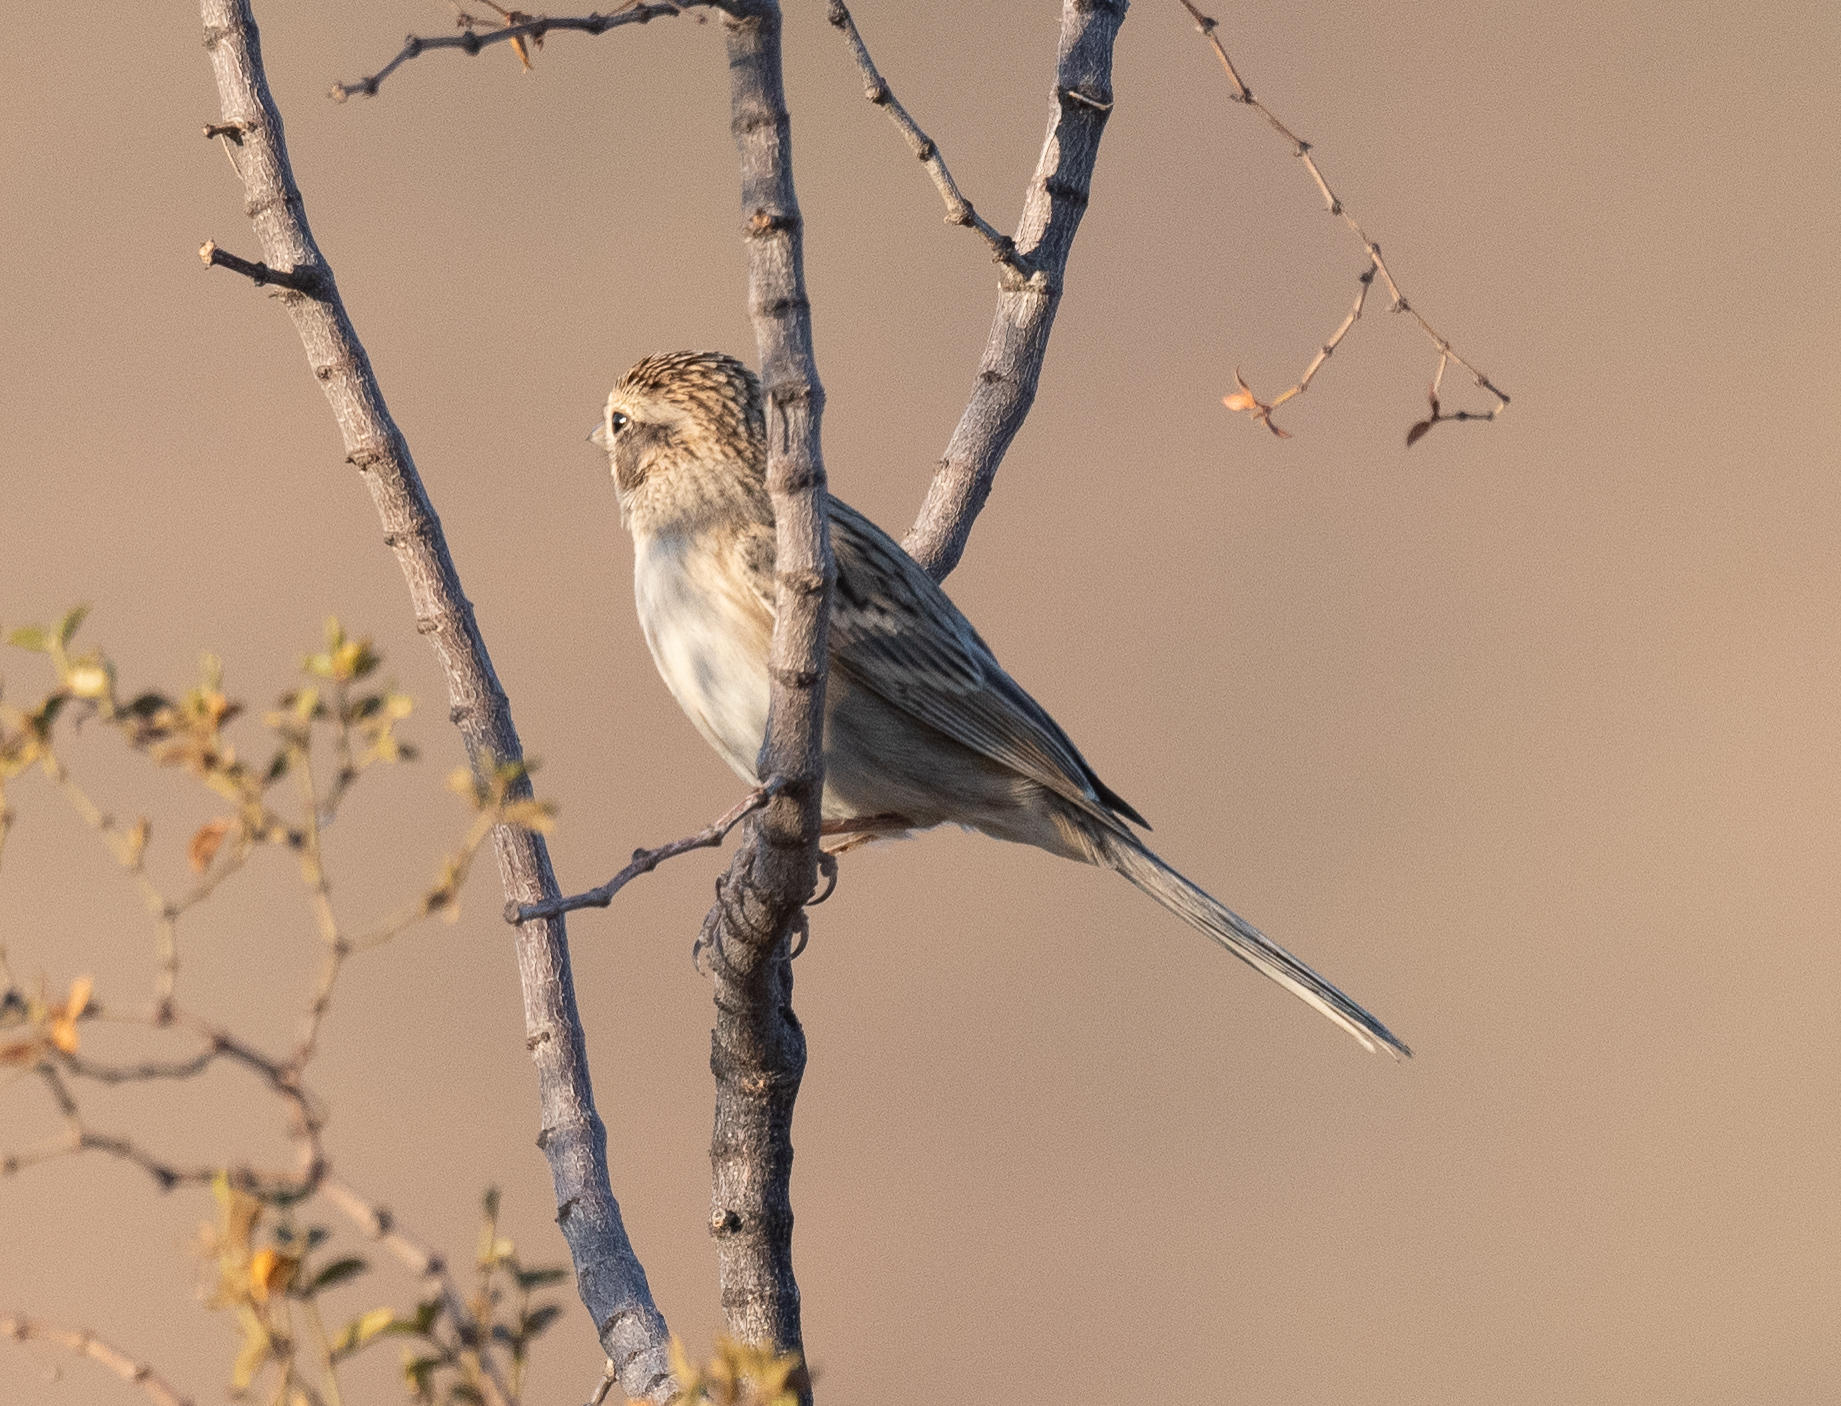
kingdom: Animalia
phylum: Chordata
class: Aves
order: Passeriformes
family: Passerellidae
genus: Spizella
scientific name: Spizella breweri
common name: Brewer's sparrow
